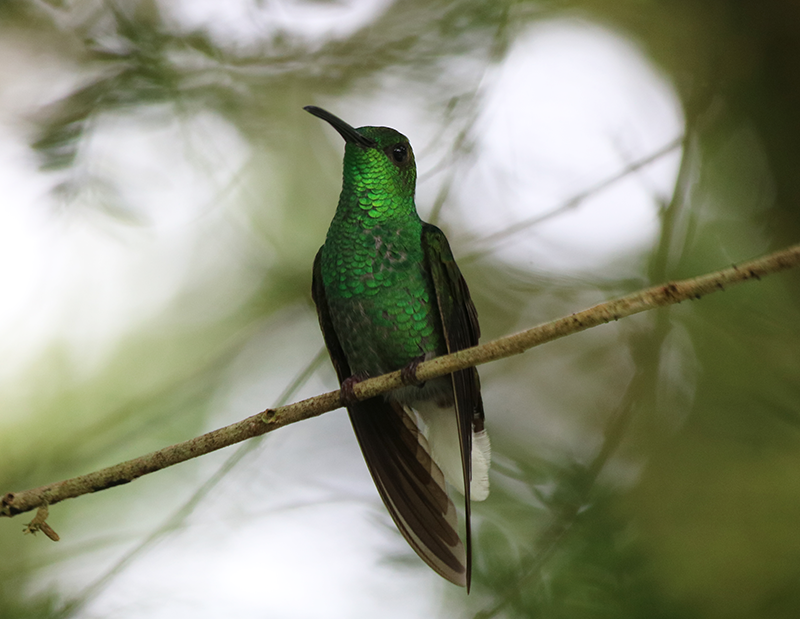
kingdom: Animalia
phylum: Chordata
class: Aves
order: Apodiformes
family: Trochilidae
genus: Chalybura
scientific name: Chalybura buffonii
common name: White-vented plumeleteer
